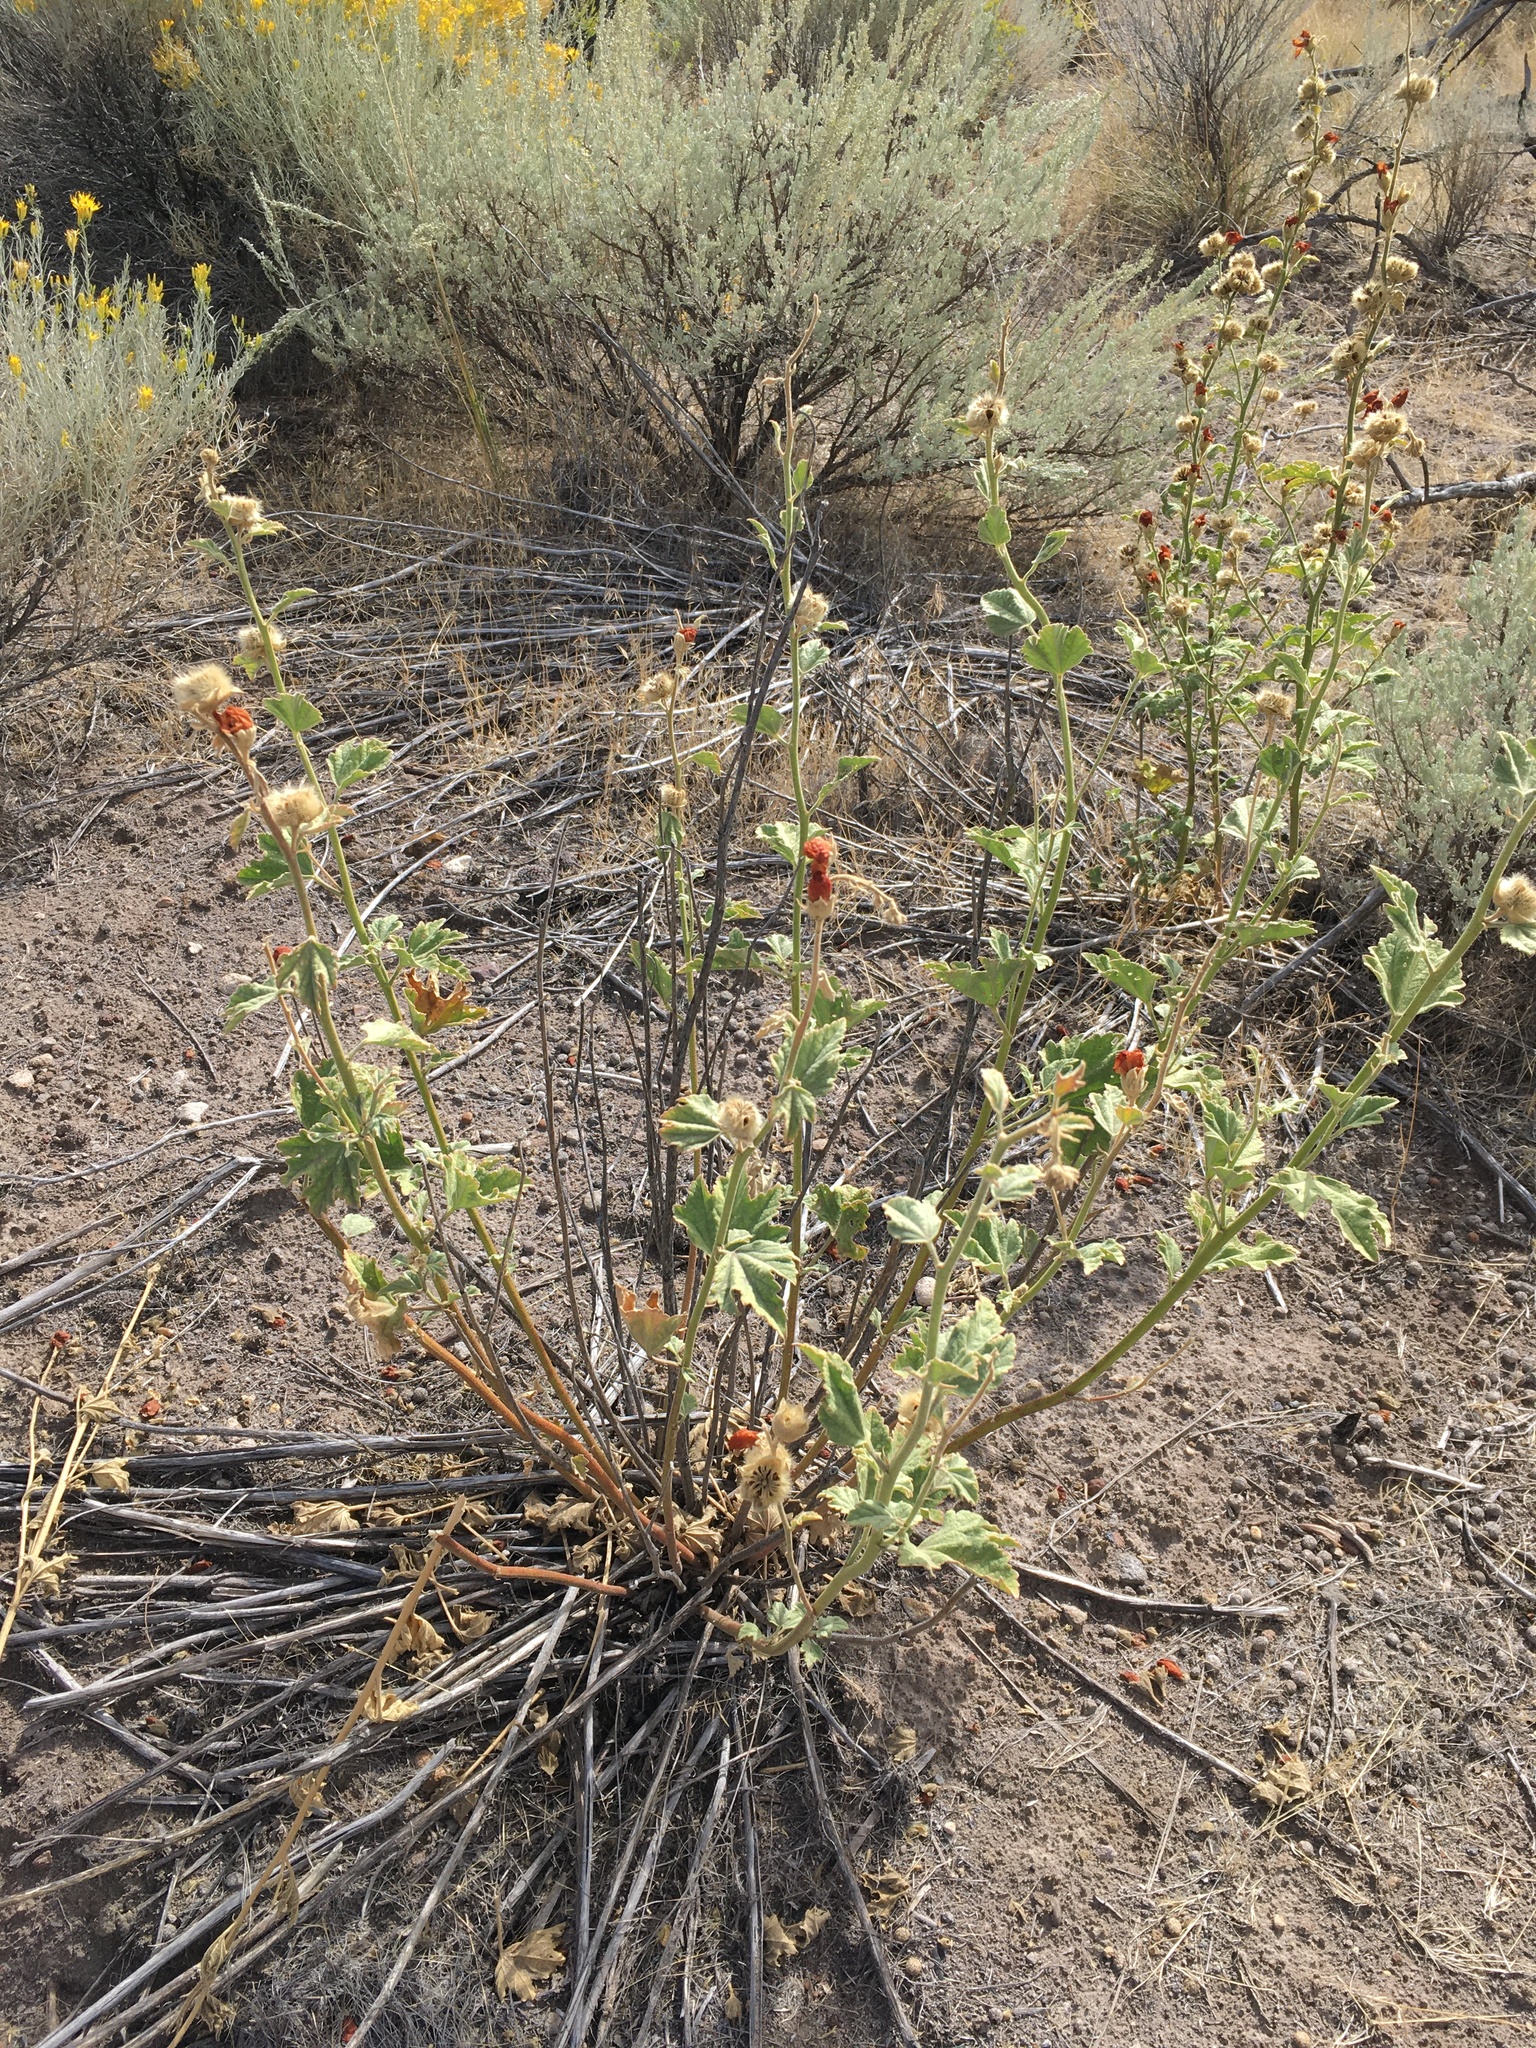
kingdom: Plantae
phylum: Tracheophyta
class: Magnoliopsida
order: Malvales
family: Malvaceae
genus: Iliamna
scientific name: Iliamna bakeri
